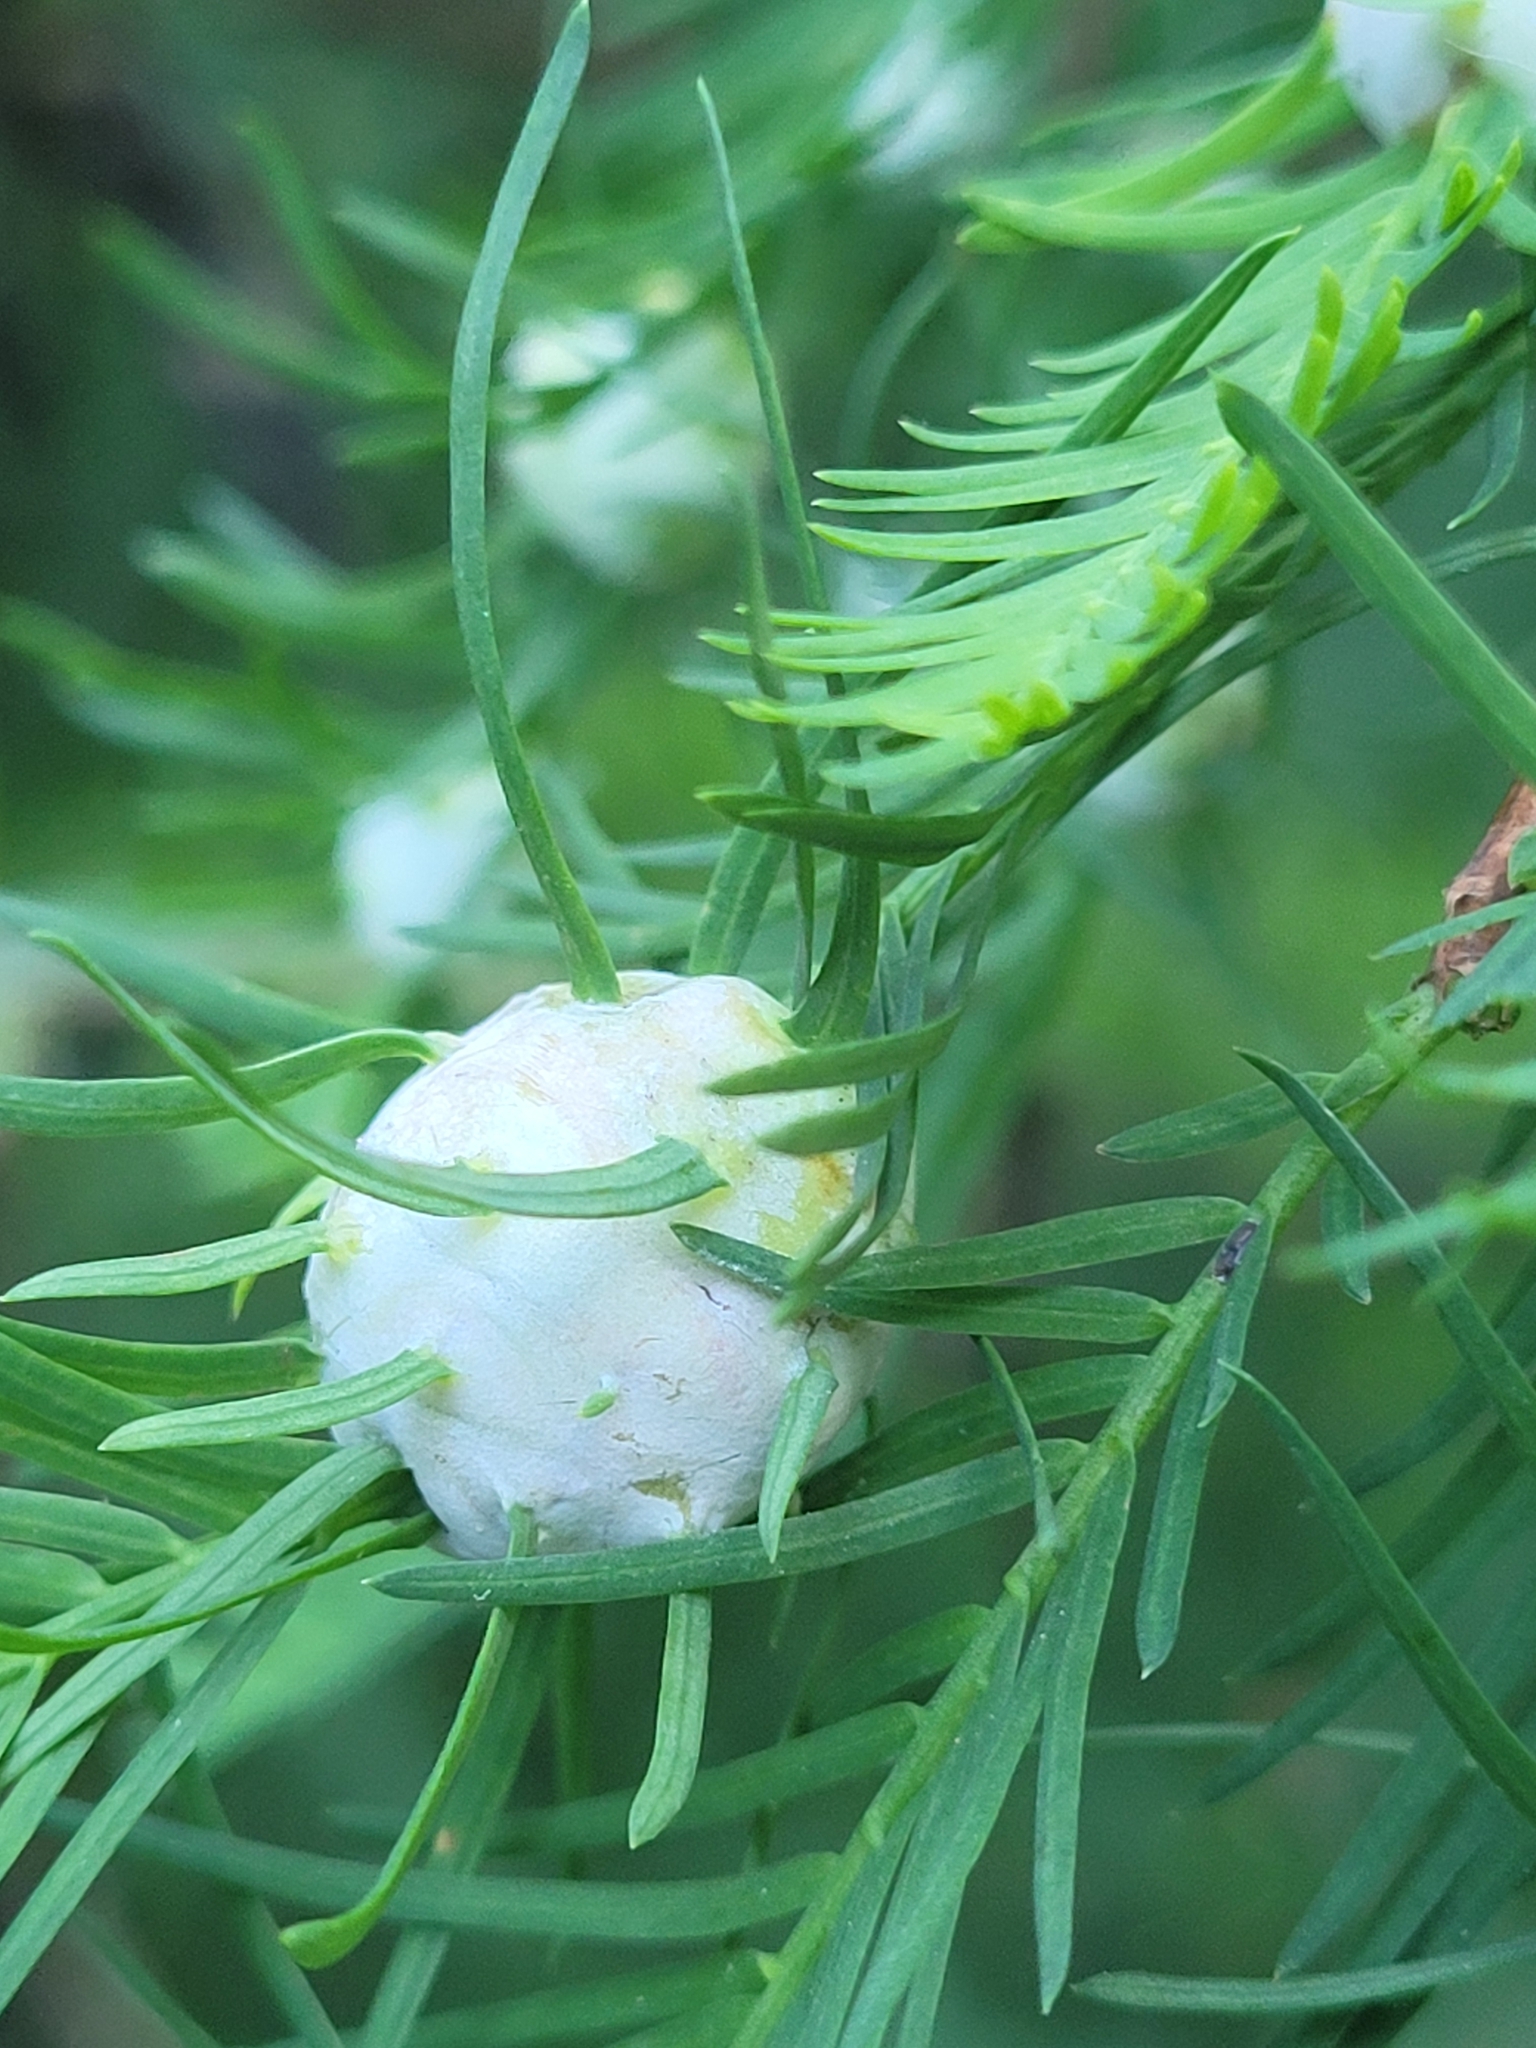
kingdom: Animalia
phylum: Arthropoda
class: Insecta
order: Diptera
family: Cecidomyiidae
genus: Taxodiomyia
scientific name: Taxodiomyia cupressiananassa
